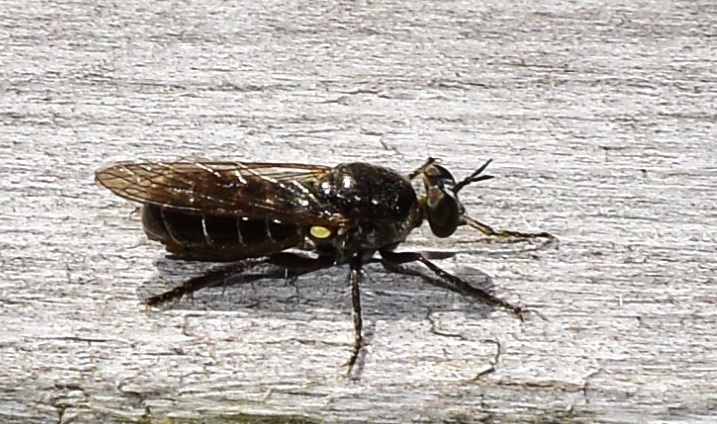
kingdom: Animalia
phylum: Arthropoda
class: Insecta
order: Diptera
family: Asilidae
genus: Atomosia
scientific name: Atomosia puella
